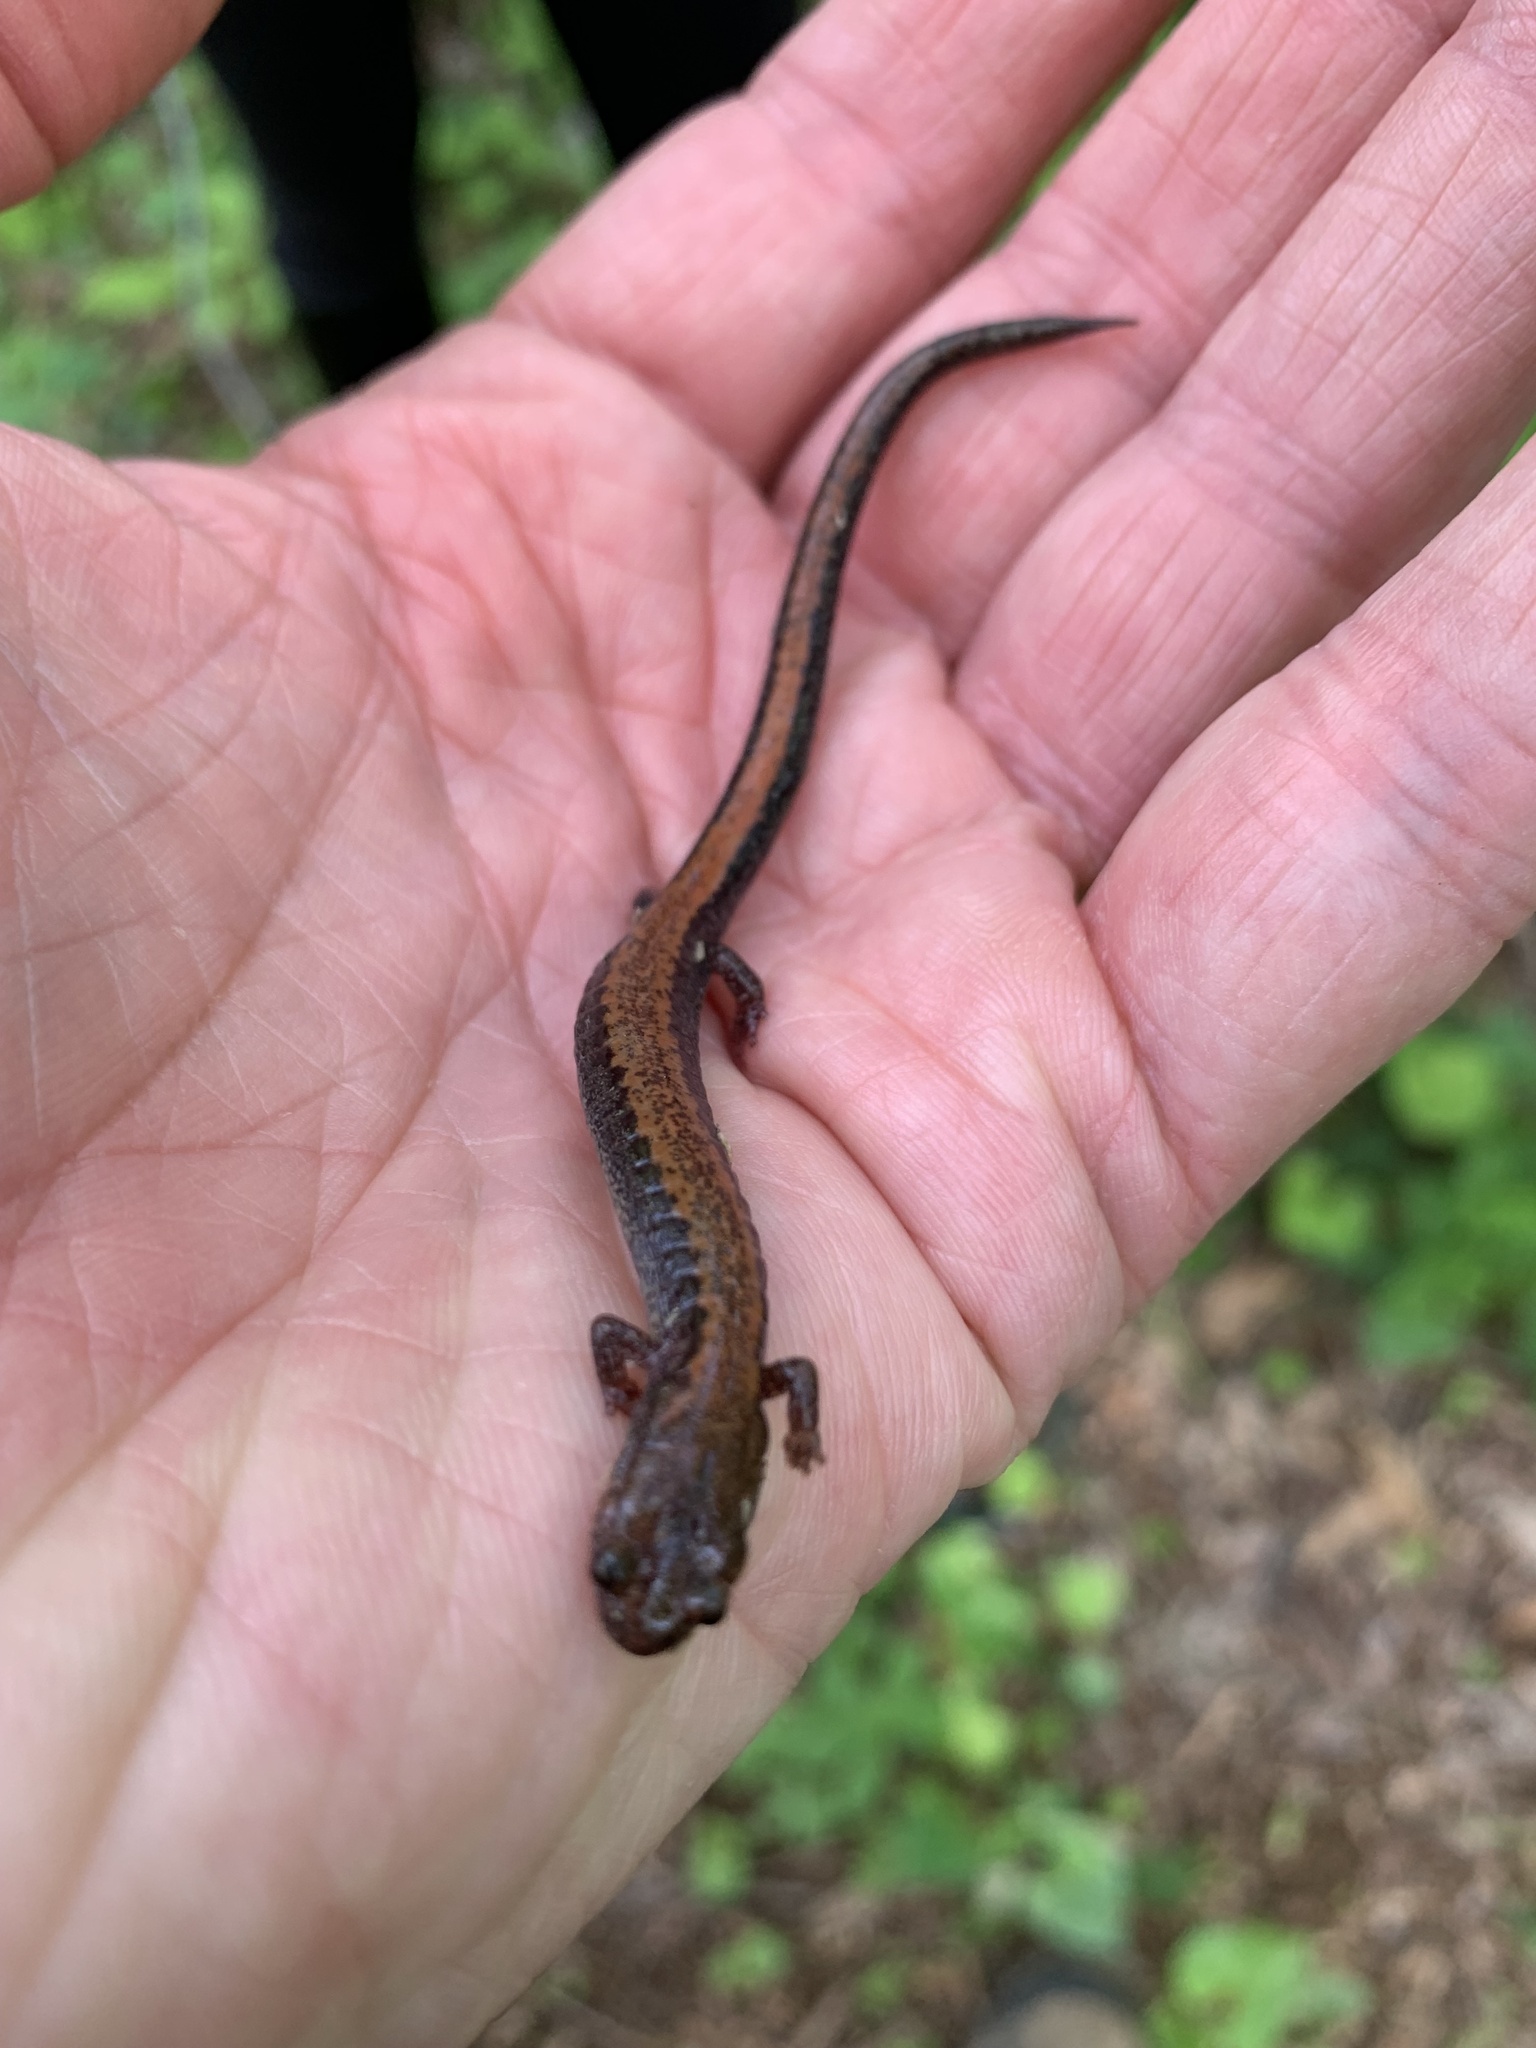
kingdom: Animalia
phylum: Chordata
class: Amphibia
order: Caudata
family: Plethodontidae
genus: Plethodon
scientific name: Plethodon cinereus
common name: Redback salamander
